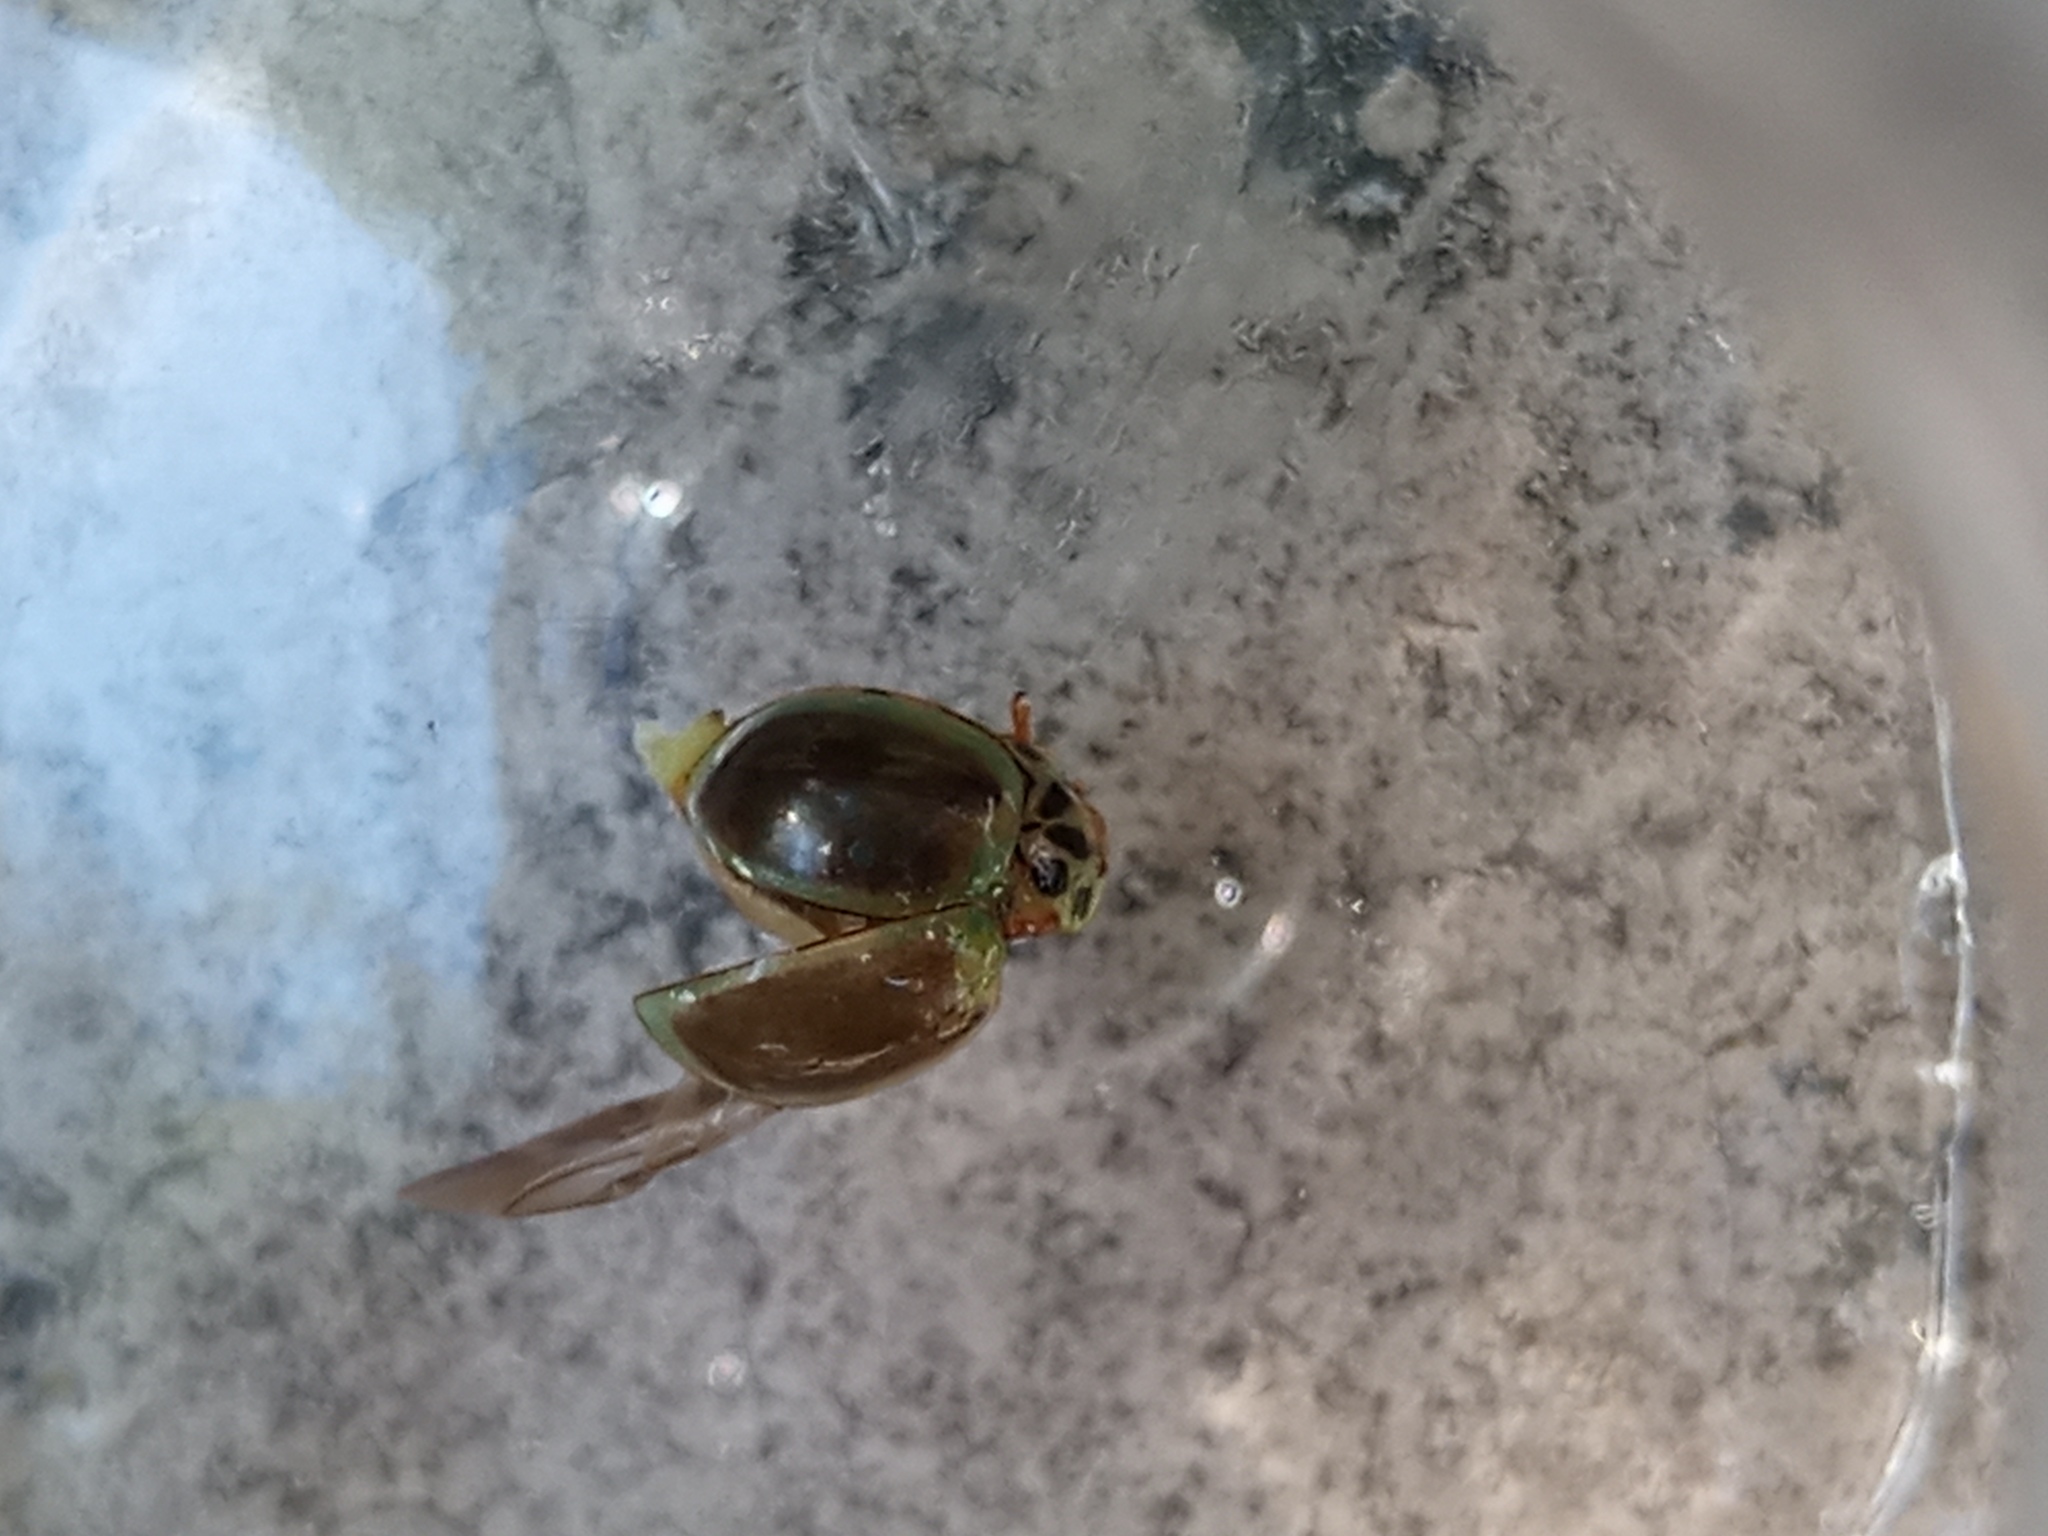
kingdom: Animalia
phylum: Arthropoda
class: Insecta
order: Coleoptera
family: Coccinellidae
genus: Neoharmonia
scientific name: Neoharmonia
